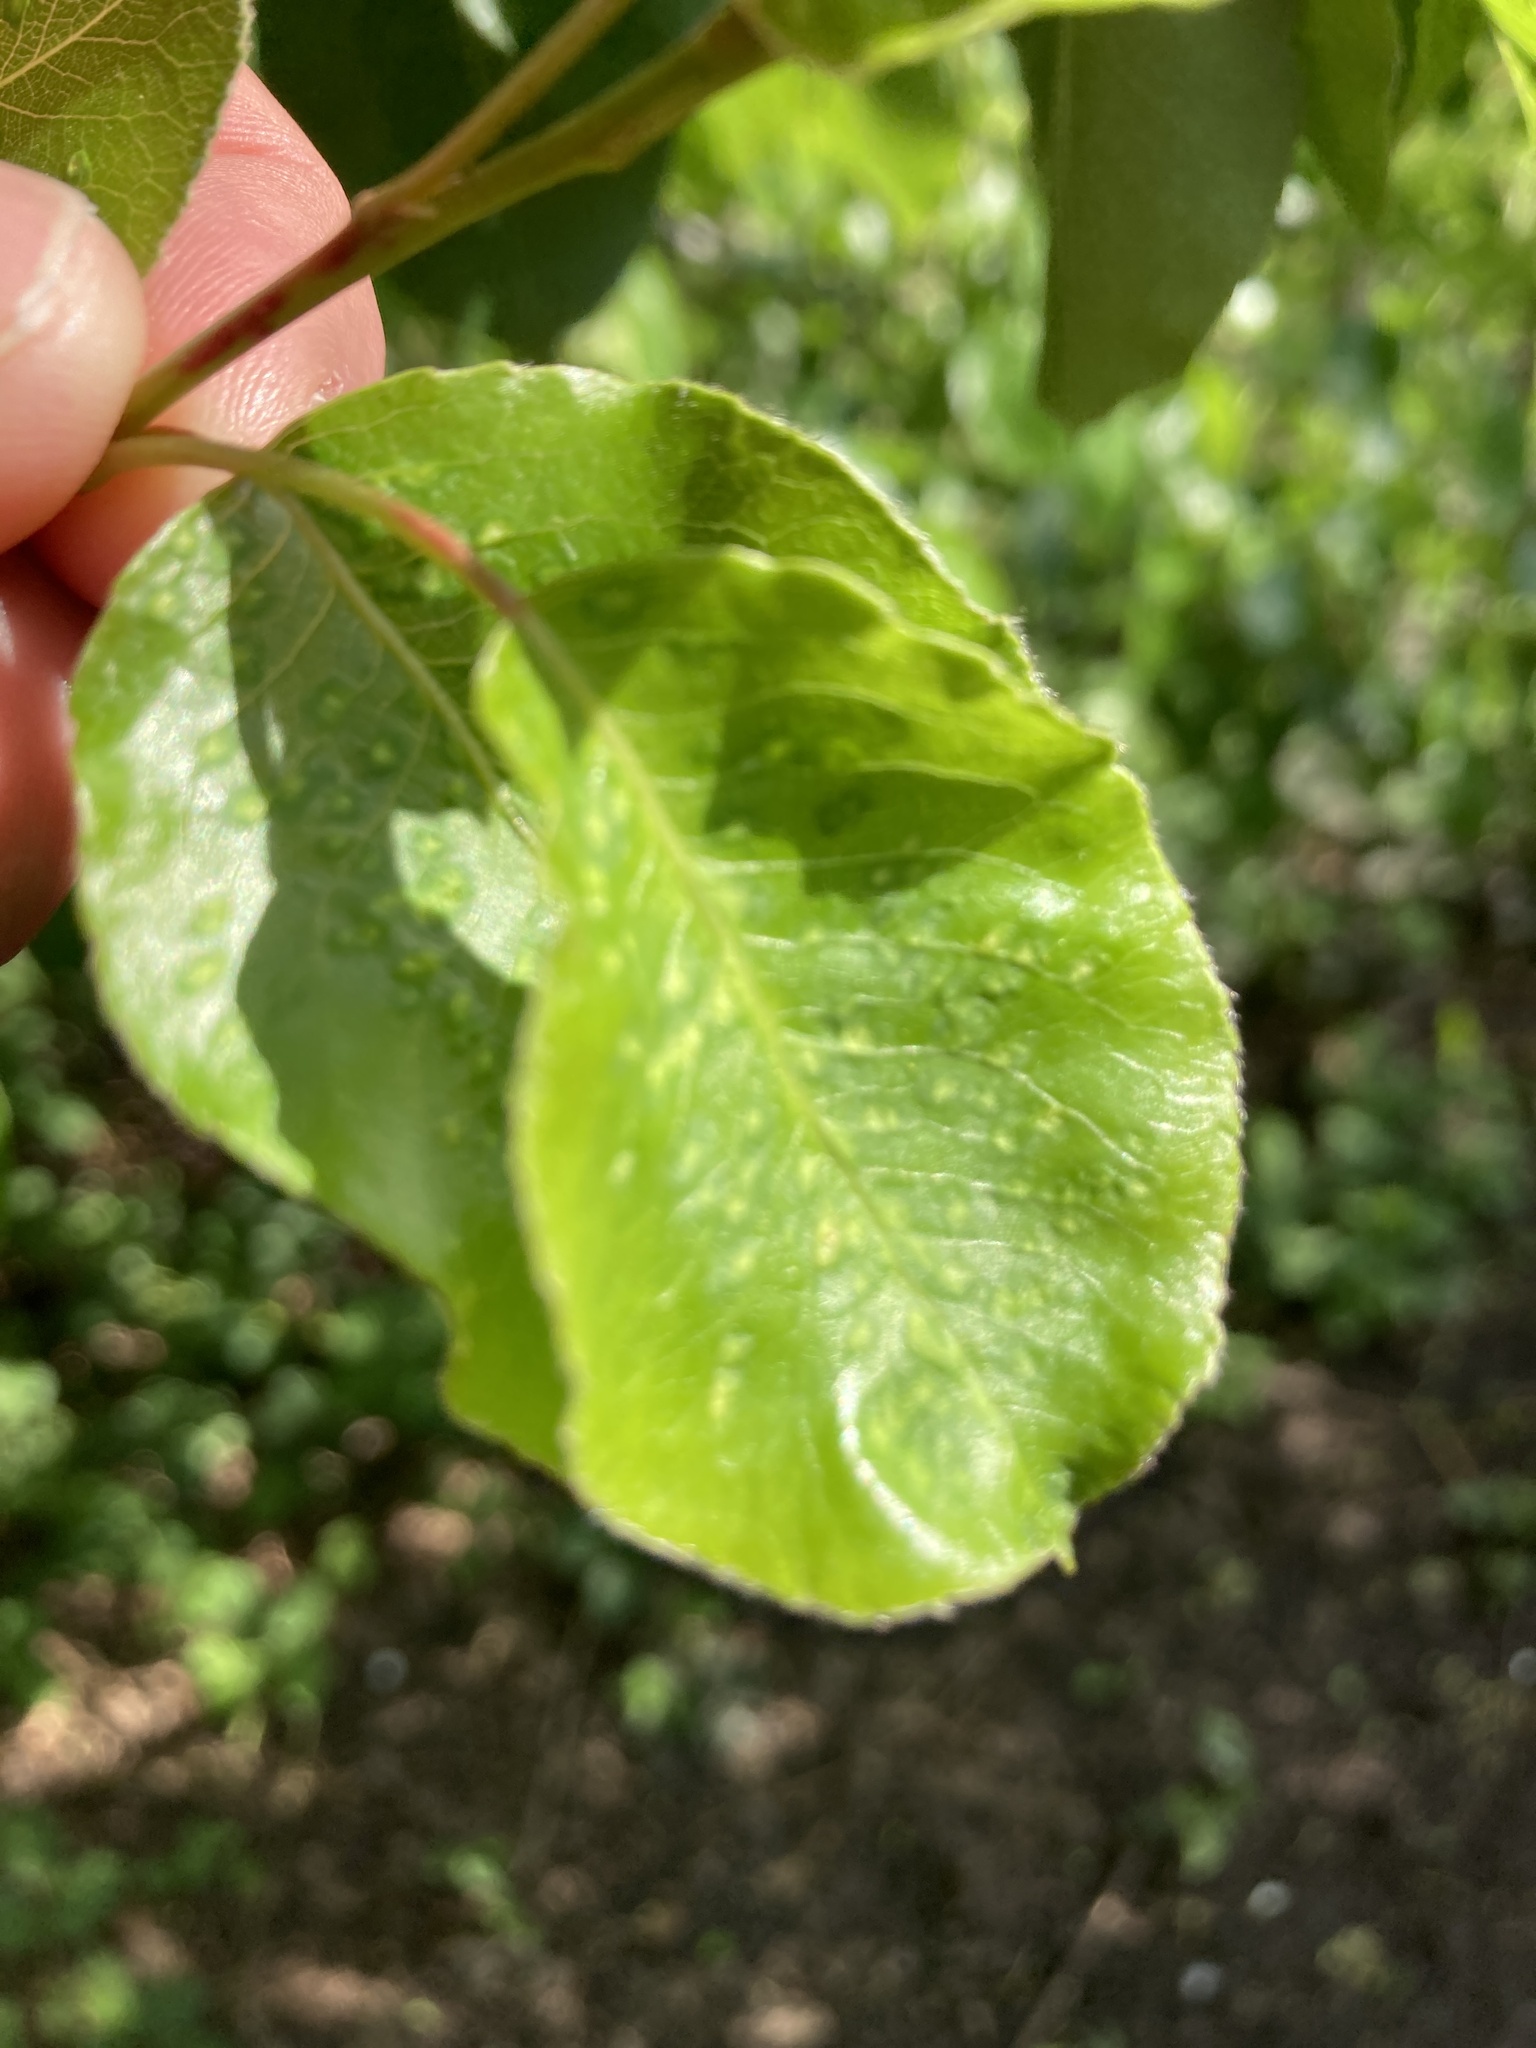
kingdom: Animalia
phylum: Arthropoda
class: Arachnida
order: Trombidiformes
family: Eriophyidae
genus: Eriophyes
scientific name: Eriophyes pyri
